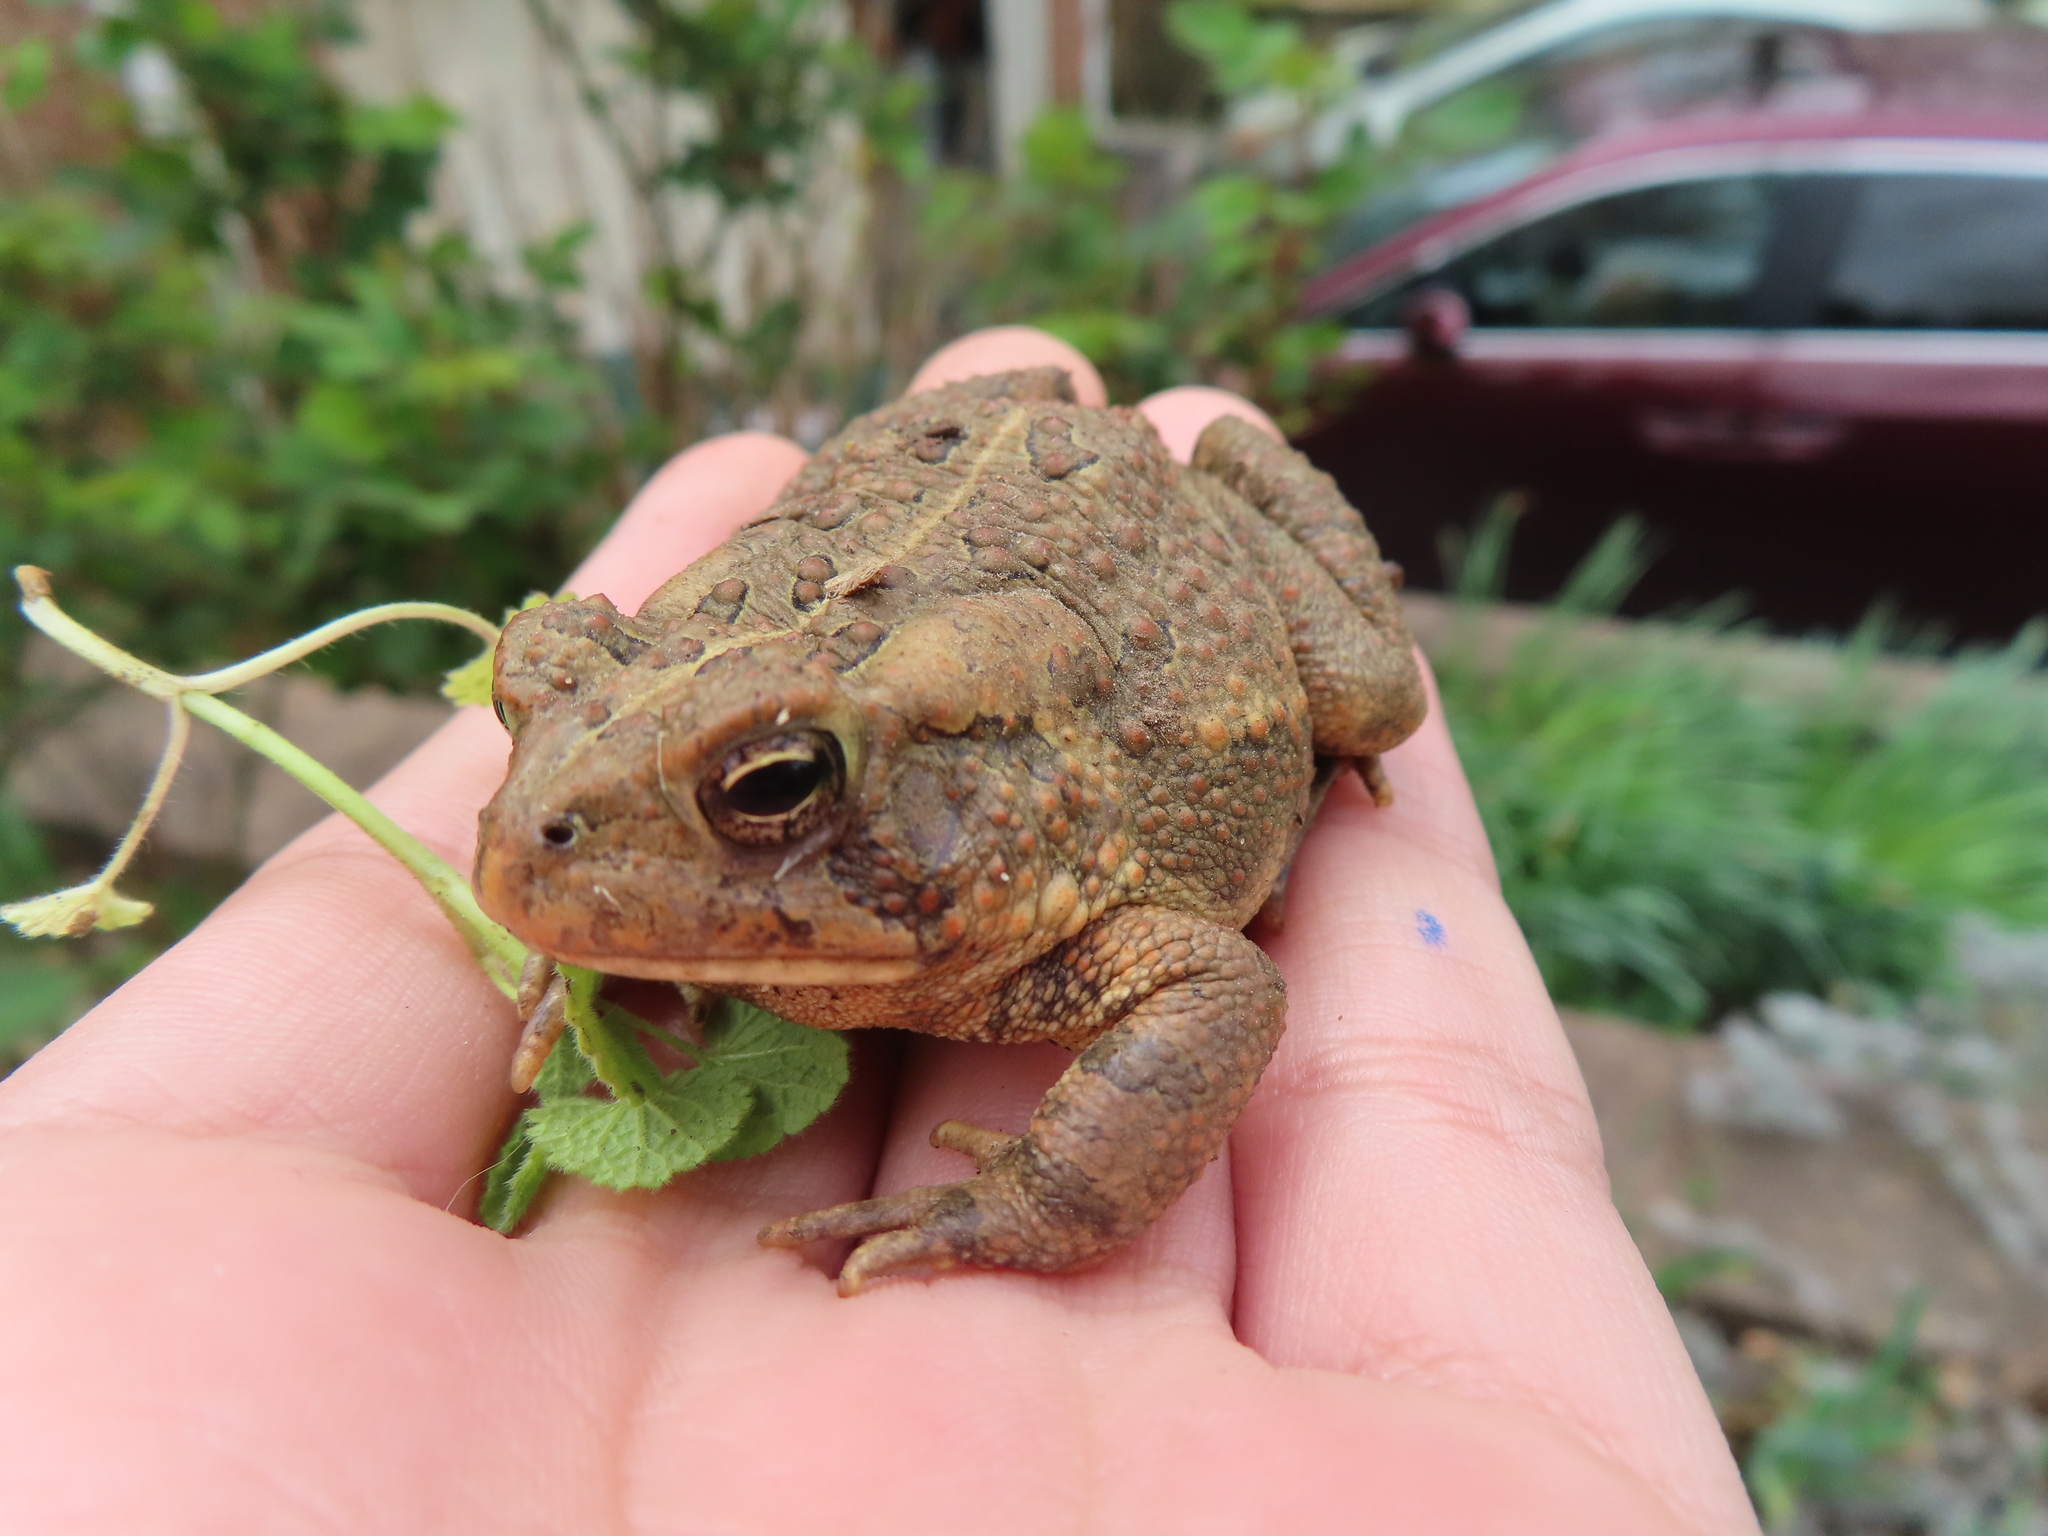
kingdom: Animalia
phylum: Chordata
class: Amphibia
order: Anura
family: Bufonidae
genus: Anaxyrus
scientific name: Anaxyrus fowleri
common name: Fowler's toad
